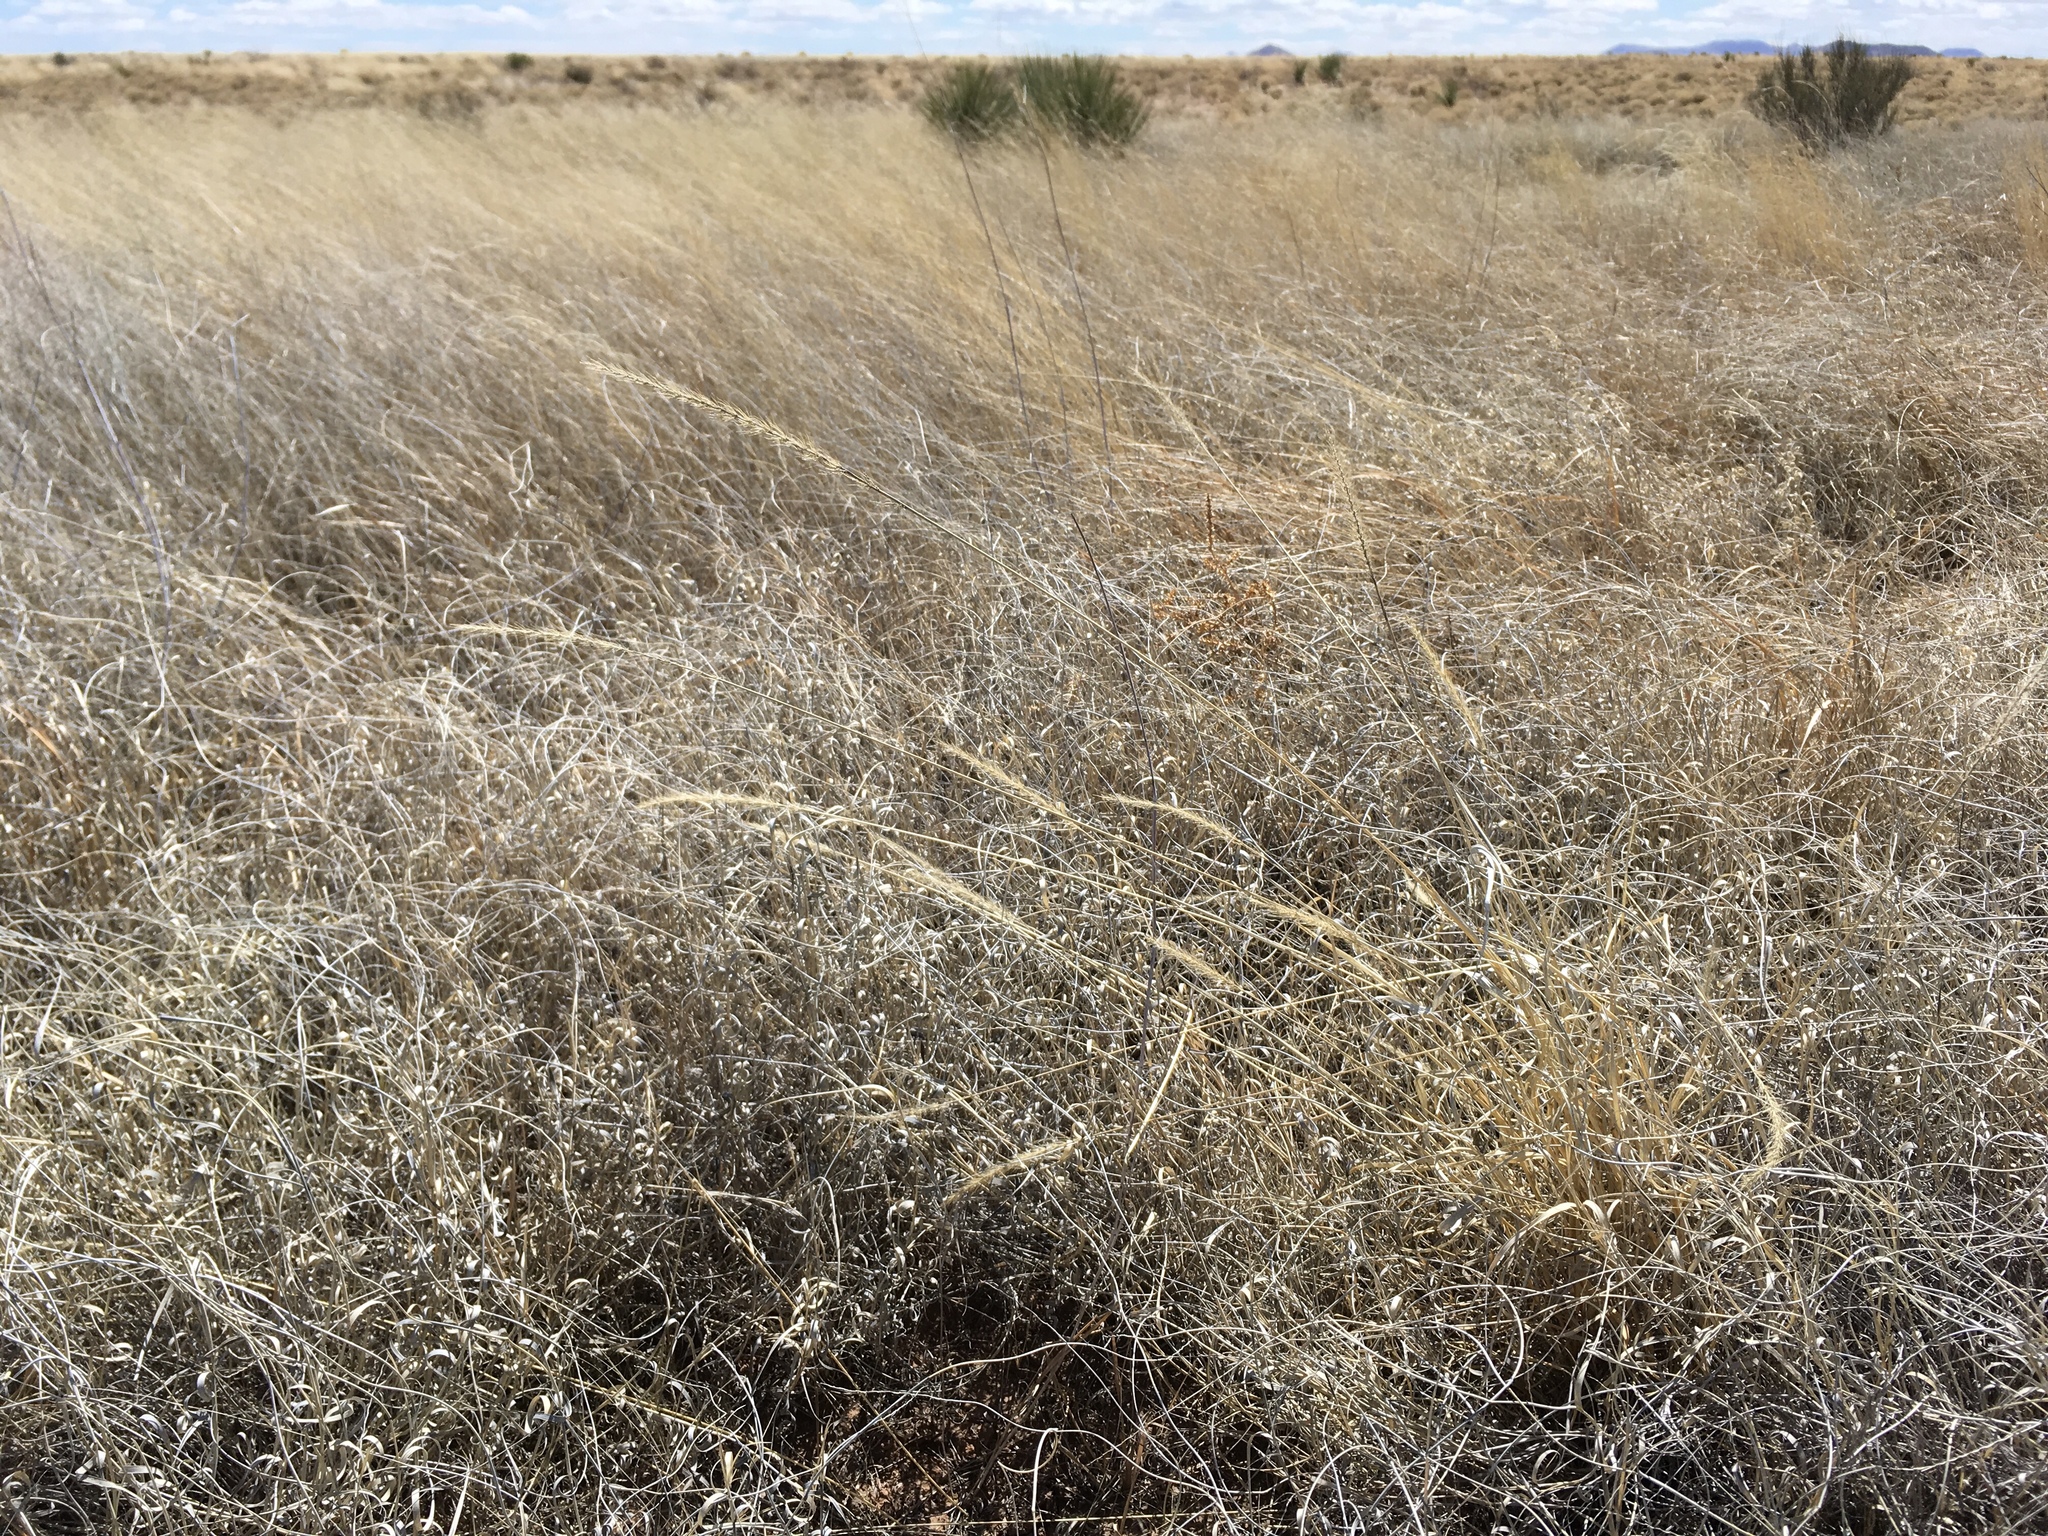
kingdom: Plantae
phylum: Tracheophyta
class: Liliopsida
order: Poales
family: Poaceae
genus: Setaria
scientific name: Setaria leucopila
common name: Plains bristle grass
